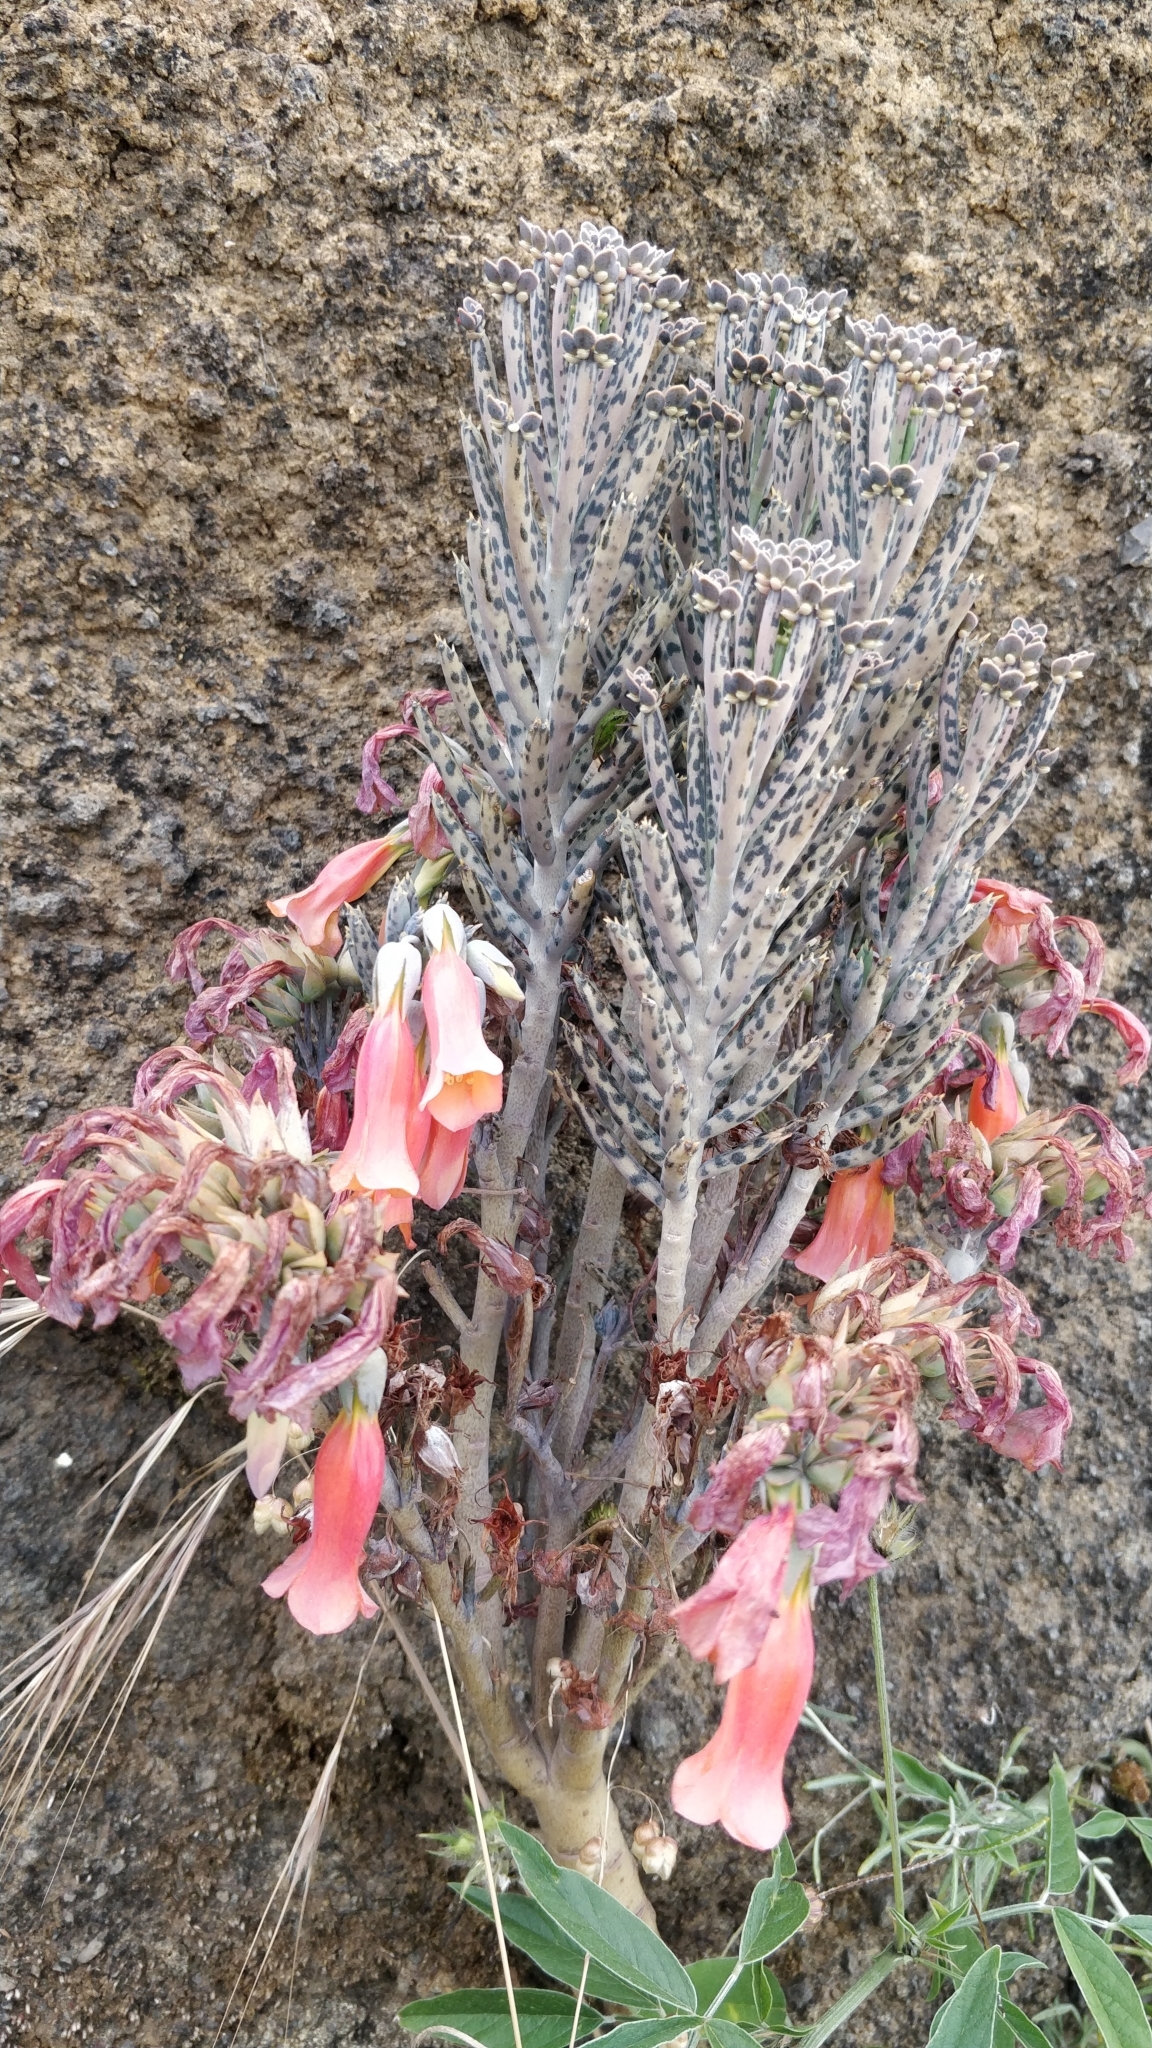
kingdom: Plantae
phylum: Tracheophyta
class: Magnoliopsida
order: Saxifragales
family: Crassulaceae
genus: Kalanchoe
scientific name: Kalanchoe delagoensis
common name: Chandelier plant
